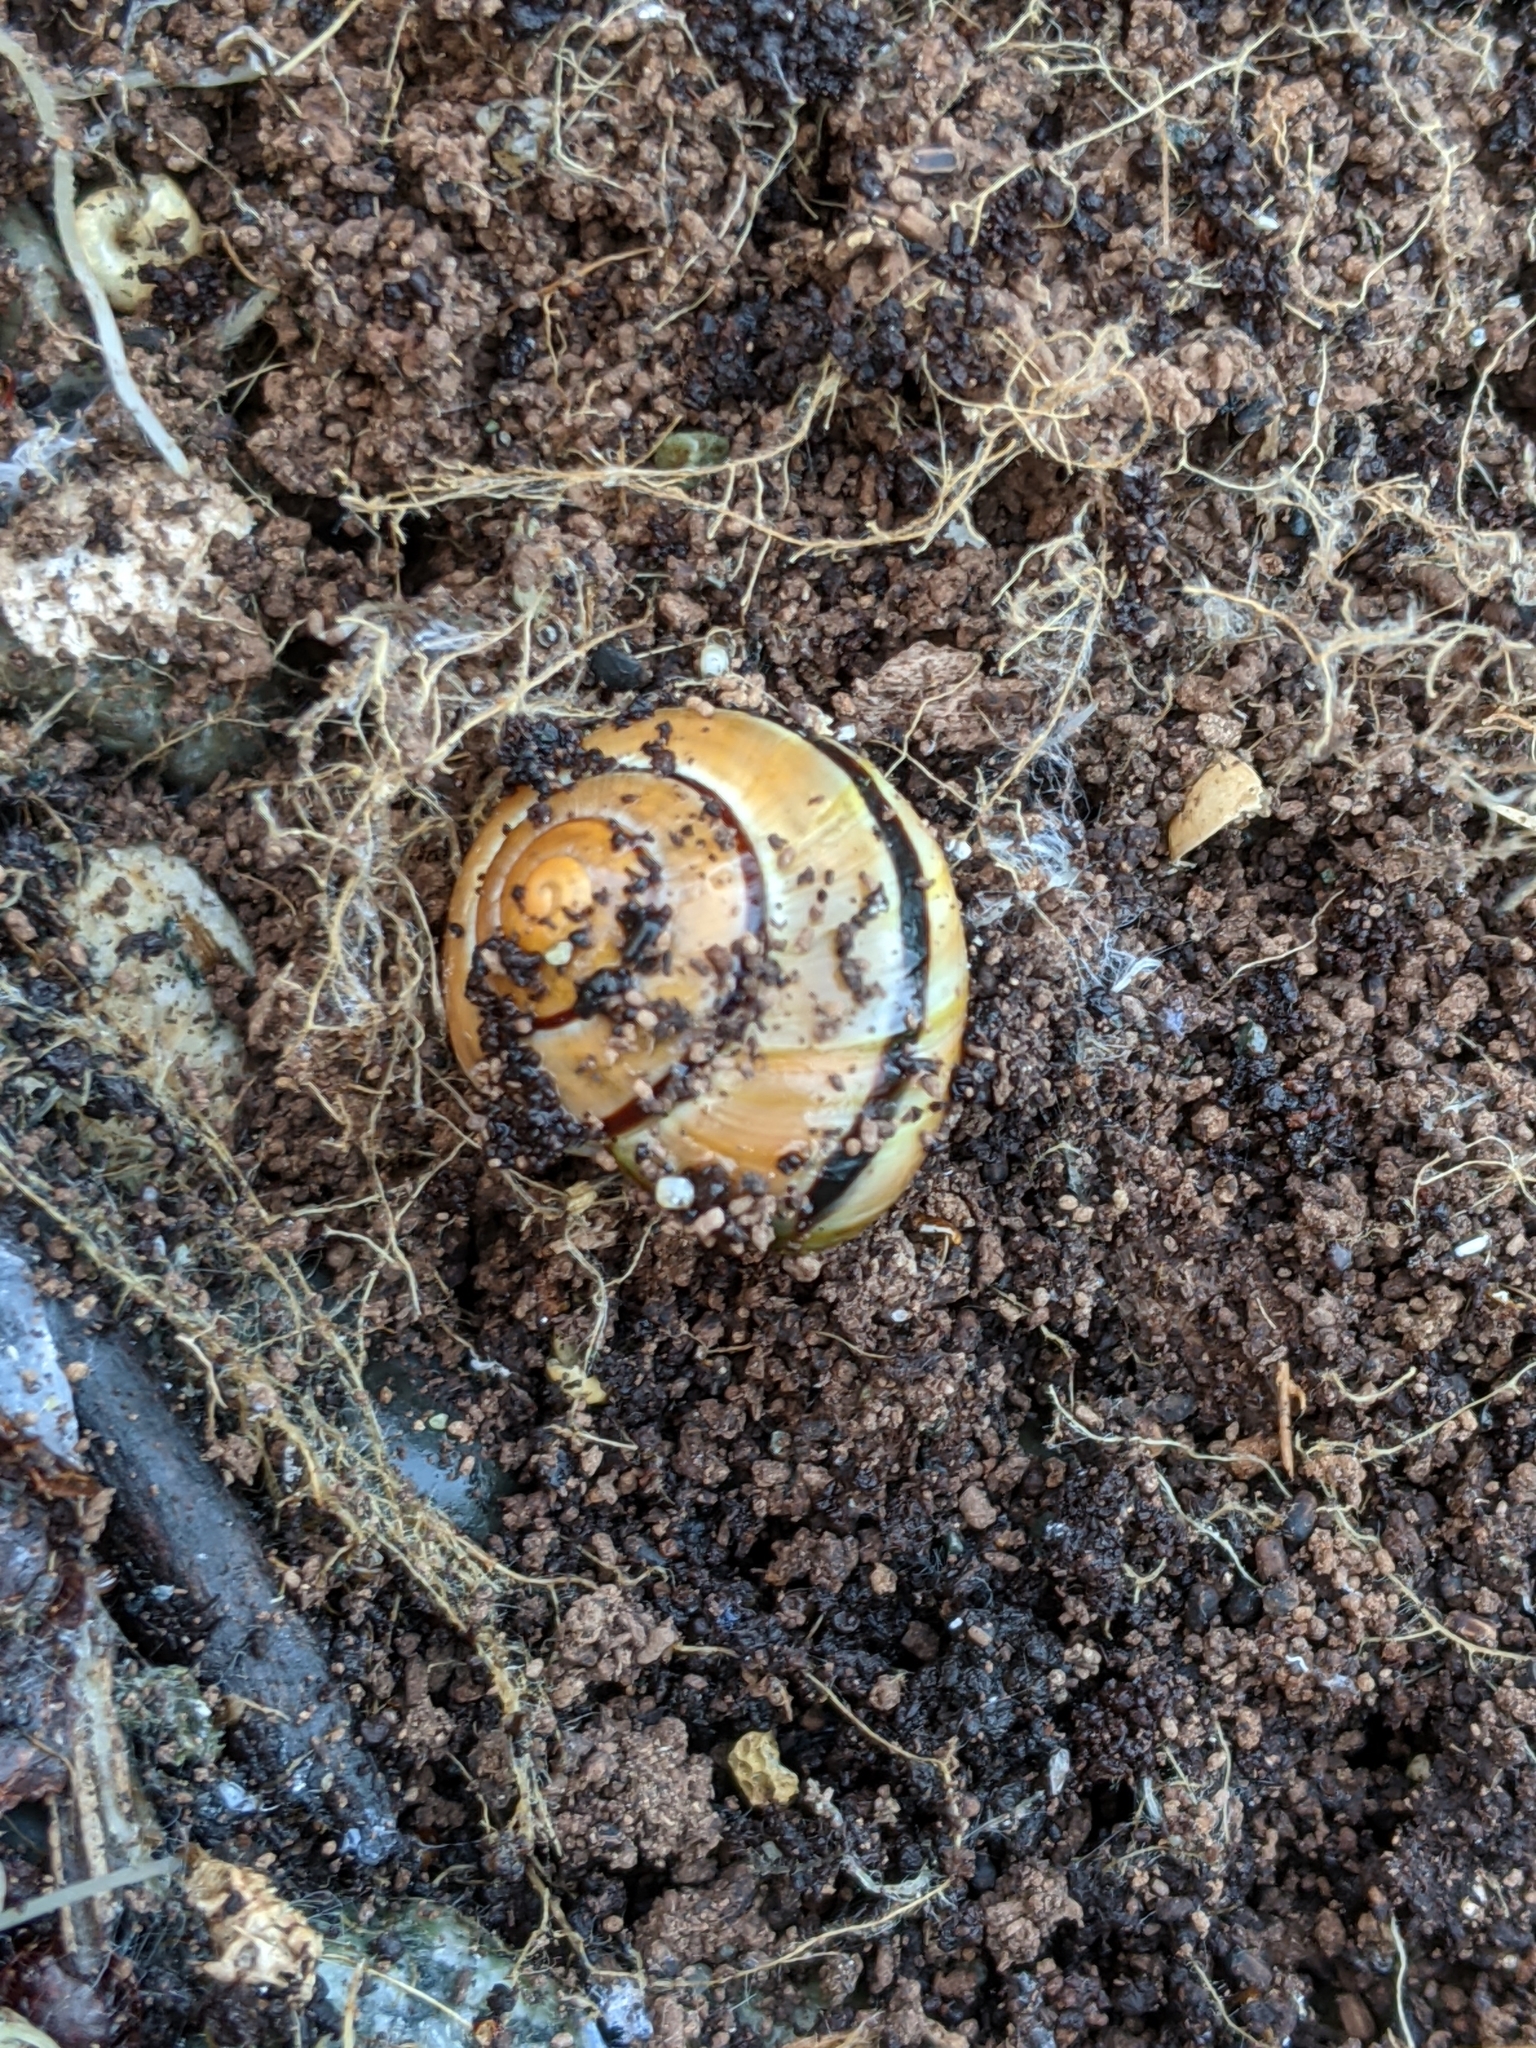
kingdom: Animalia
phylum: Mollusca
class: Gastropoda
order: Stylommatophora
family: Helicidae
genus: Cepaea
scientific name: Cepaea nemoralis
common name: Grovesnail
